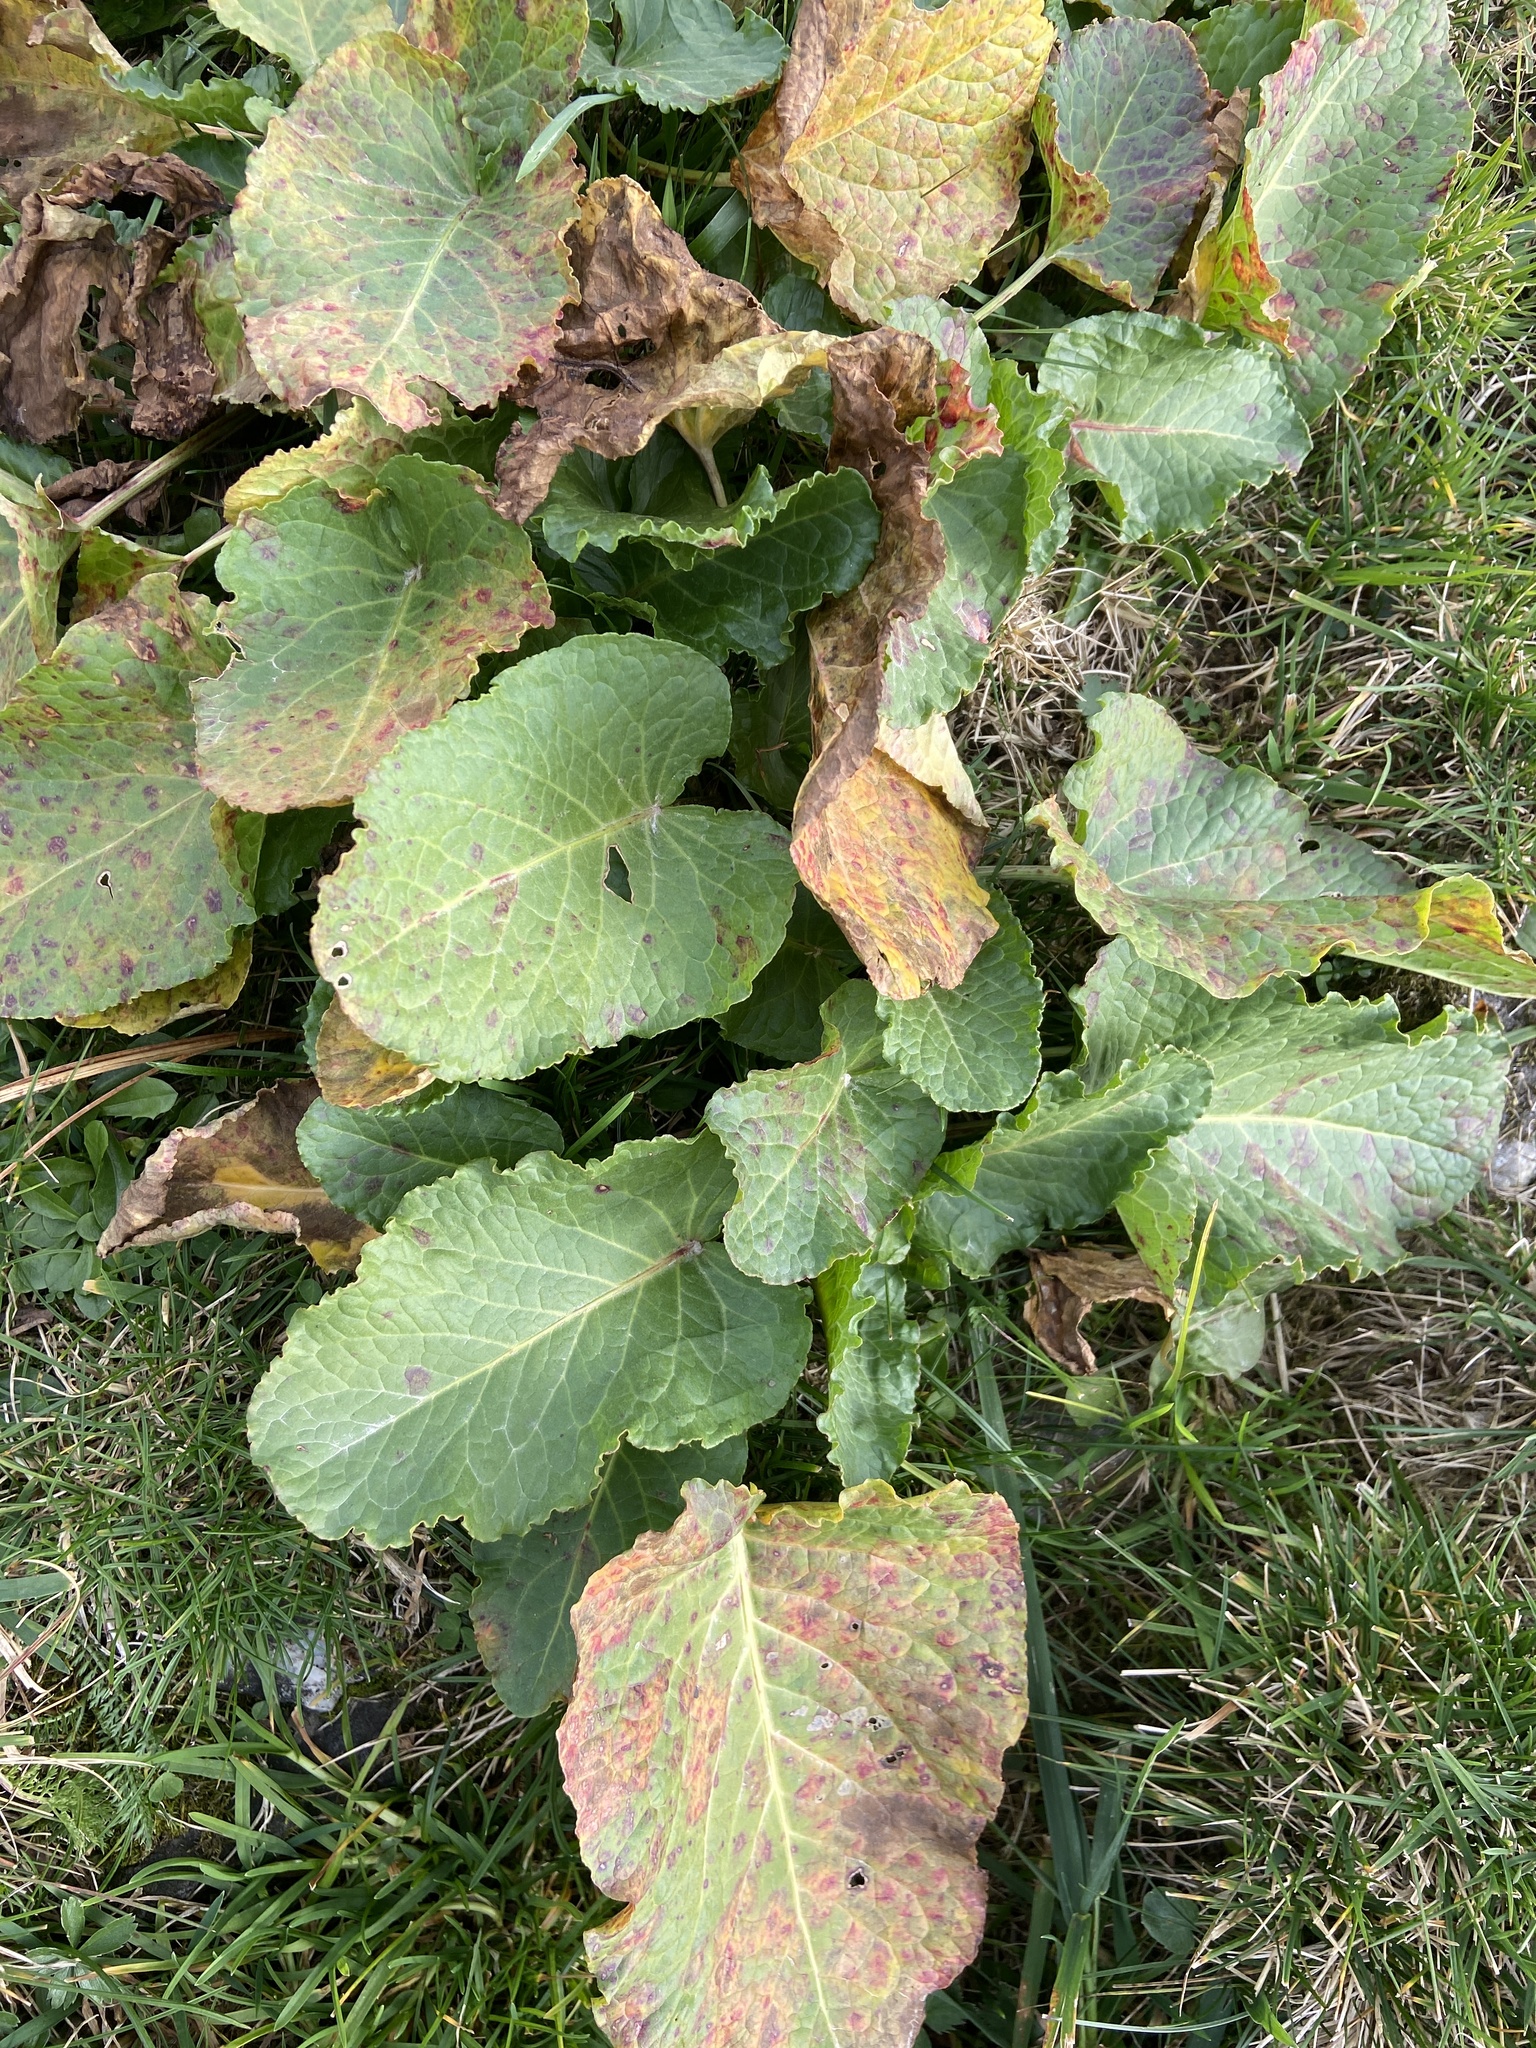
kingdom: Plantae
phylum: Tracheophyta
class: Magnoliopsida
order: Caryophyllales
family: Polygonaceae
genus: Rumex
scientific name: Rumex alpinus
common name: Alpine dock
